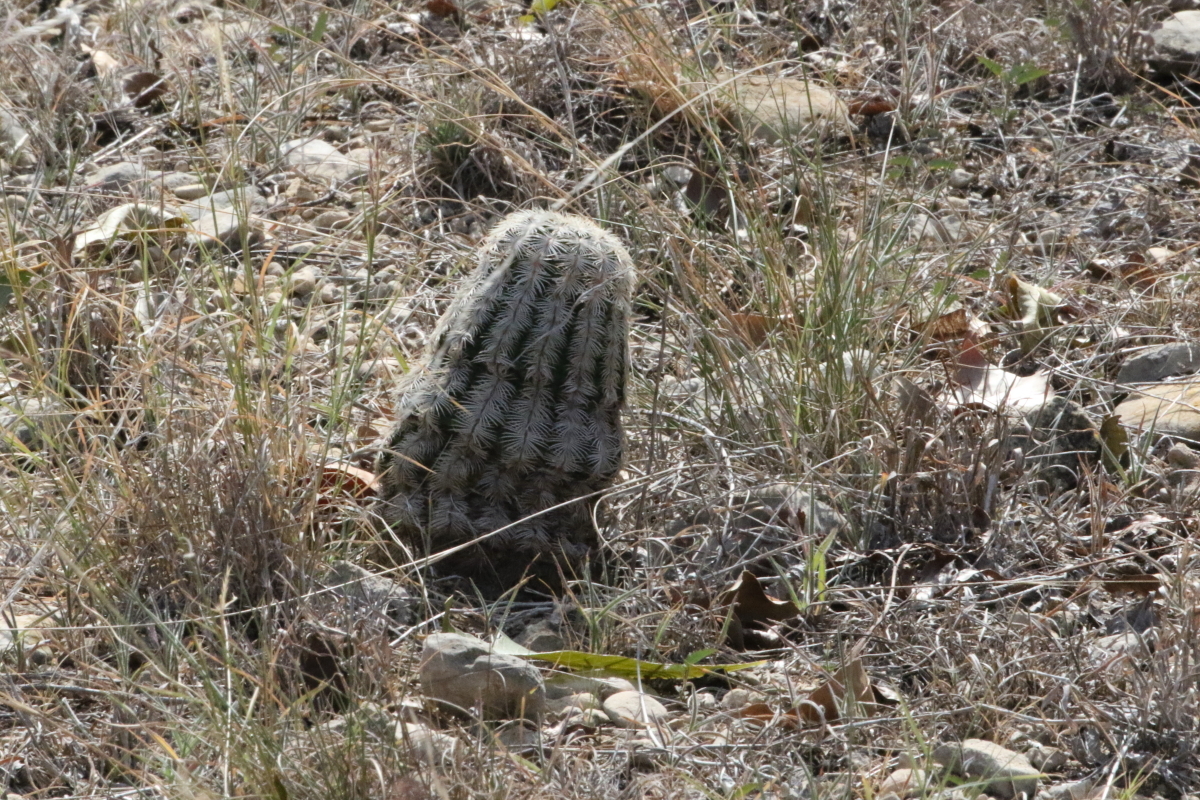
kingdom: Plantae
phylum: Tracheophyta
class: Magnoliopsida
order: Caryophyllales
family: Cactaceae
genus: Echinocereus
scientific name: Echinocereus reichenbachii
